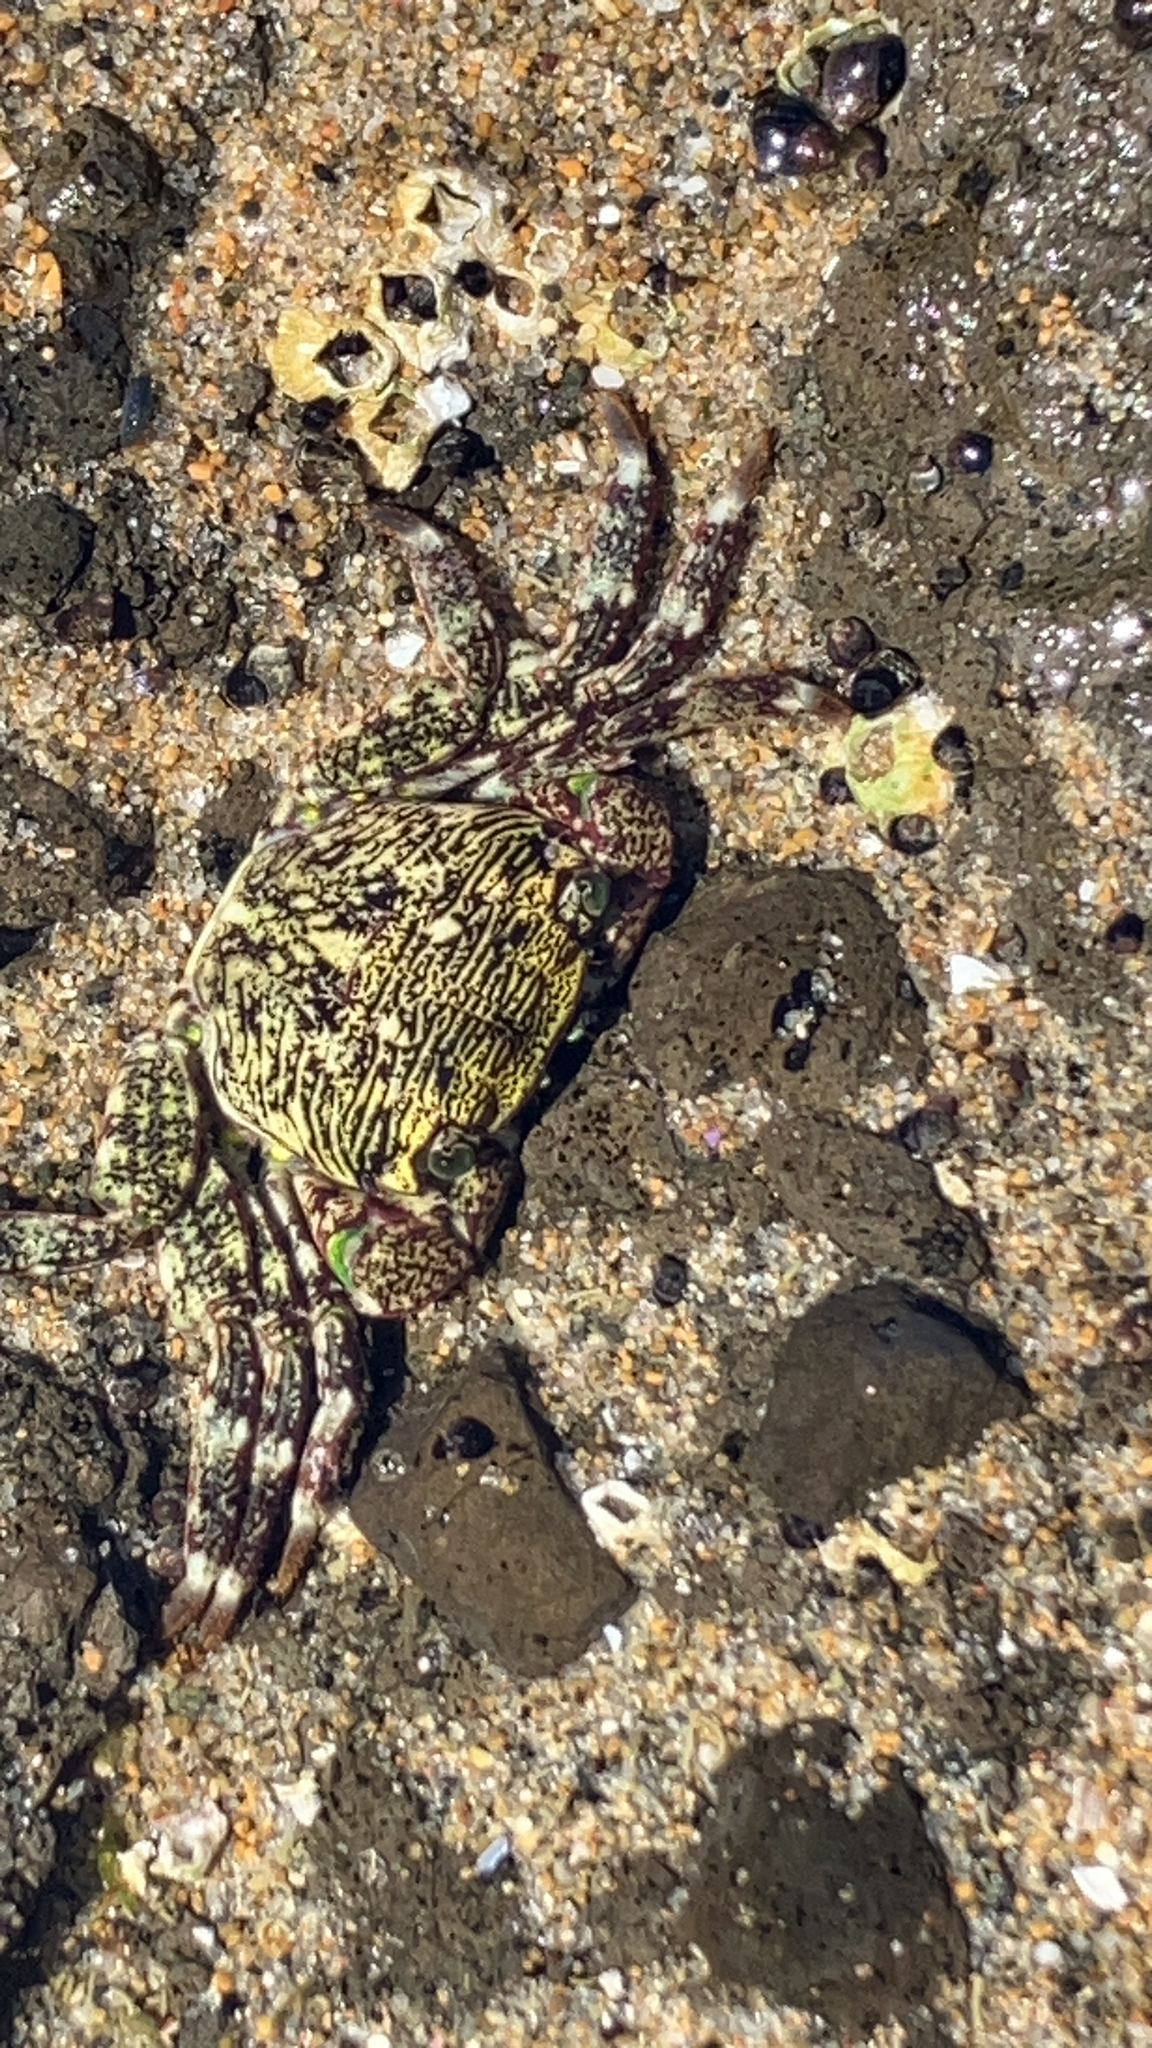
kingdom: Animalia
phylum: Arthropoda
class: Malacostraca
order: Decapoda
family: Grapsidae
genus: Pachygrapsus
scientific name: Pachygrapsus crassipes
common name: Striped shore crab
